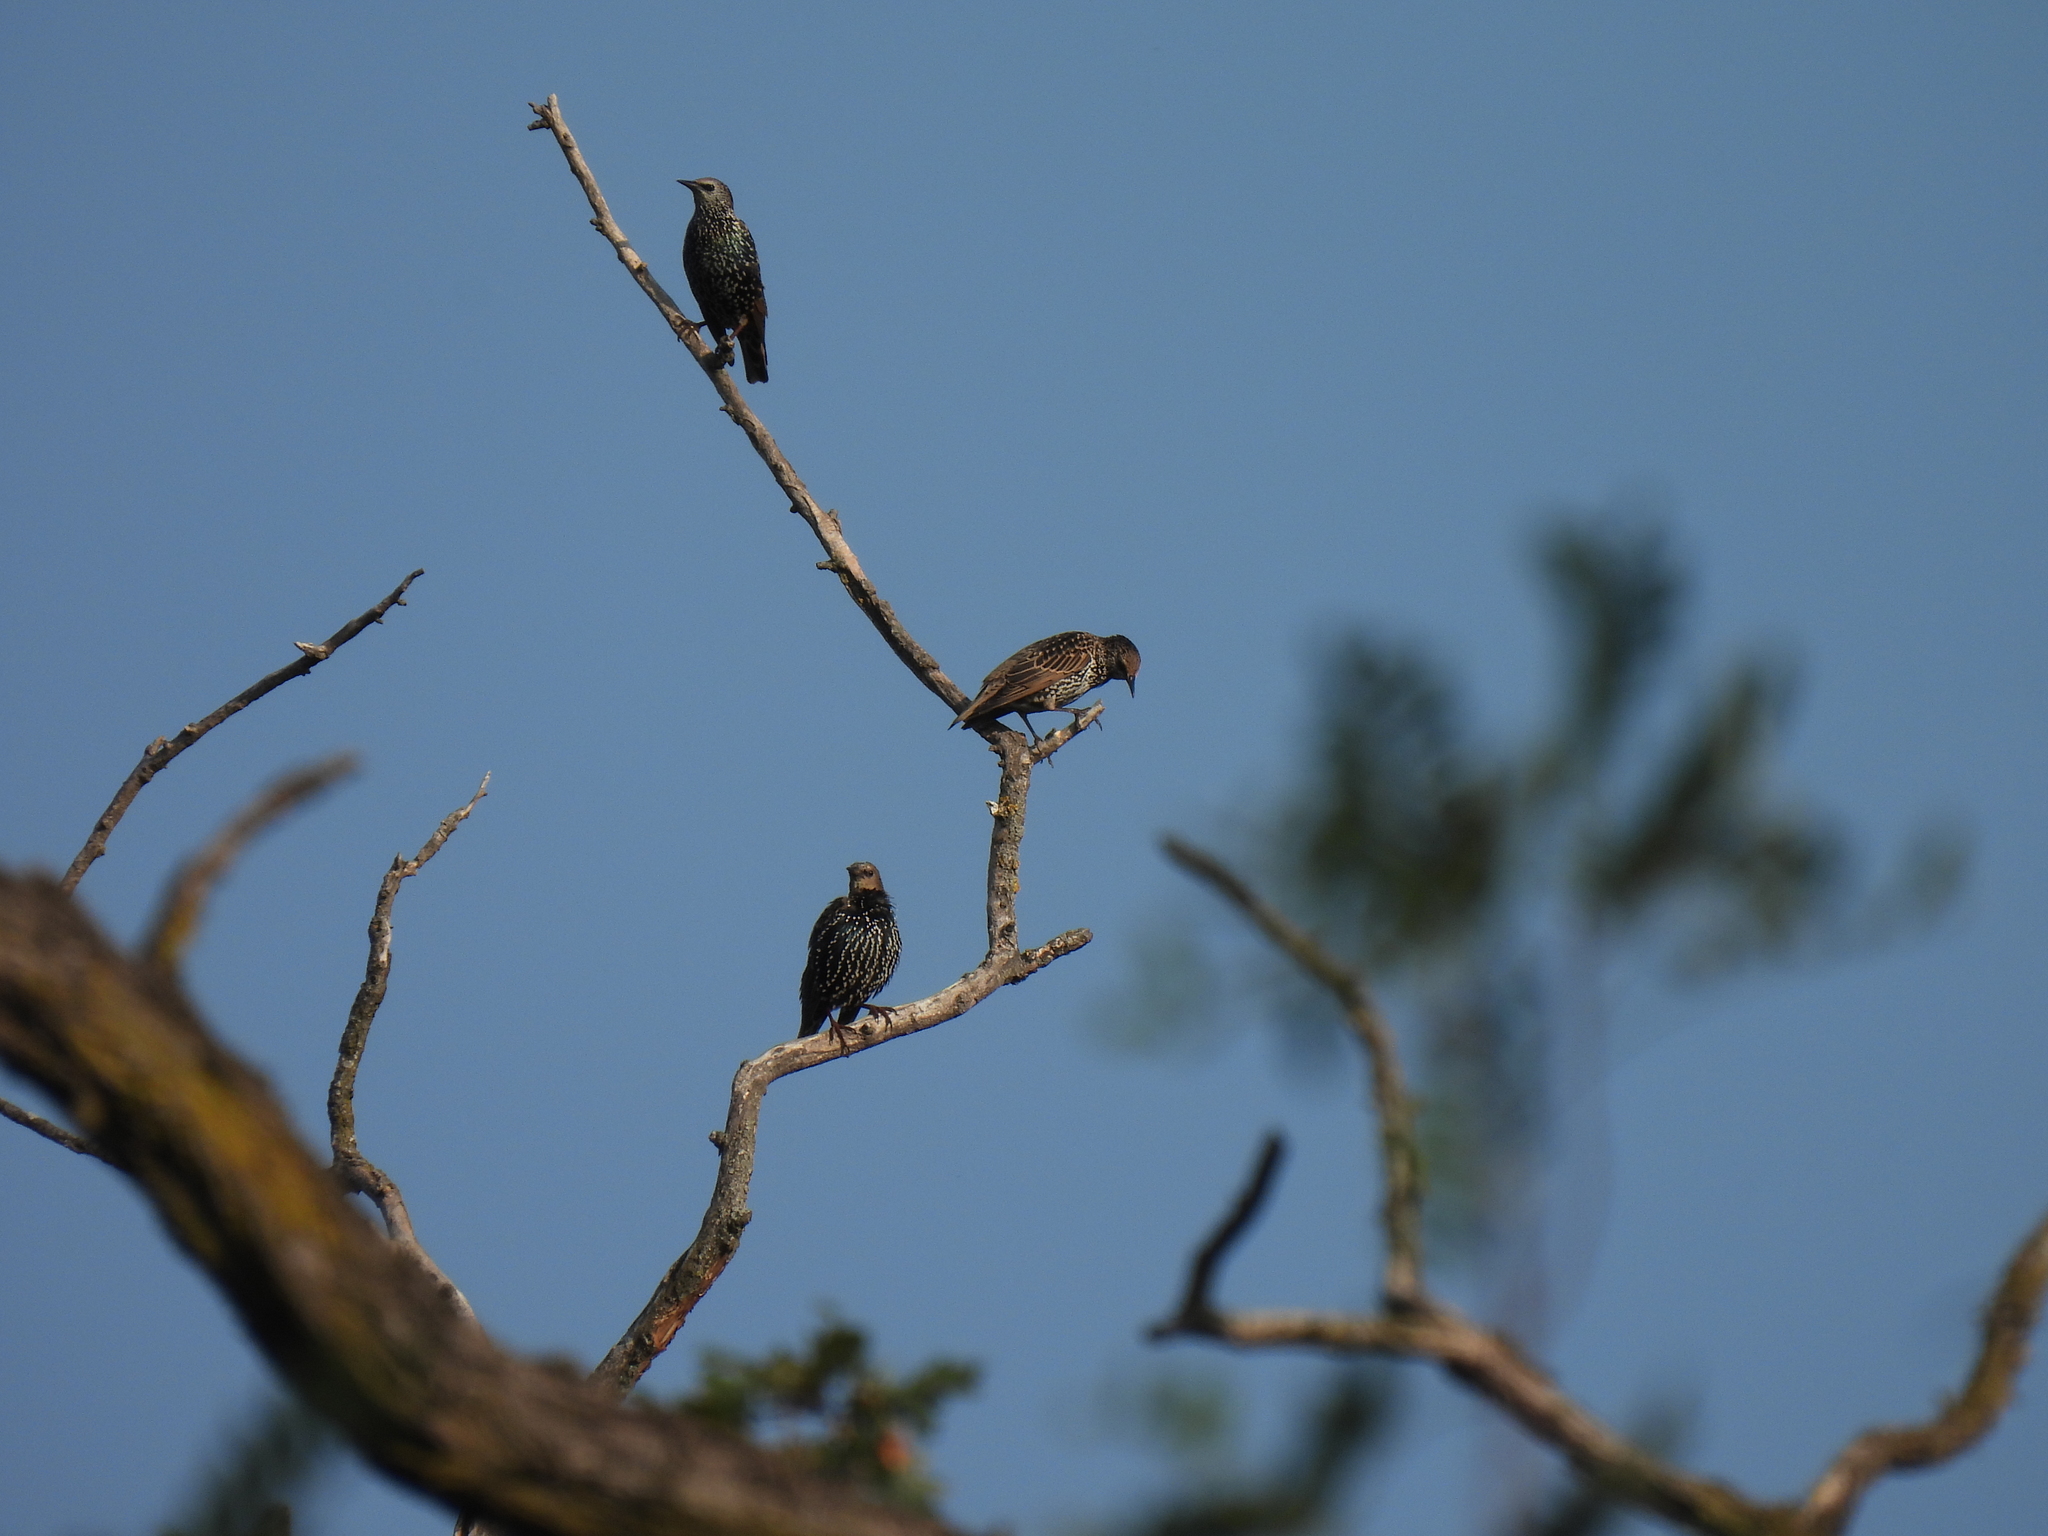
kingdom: Animalia
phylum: Chordata
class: Aves
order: Passeriformes
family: Sturnidae
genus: Sturnus
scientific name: Sturnus vulgaris
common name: Common starling
